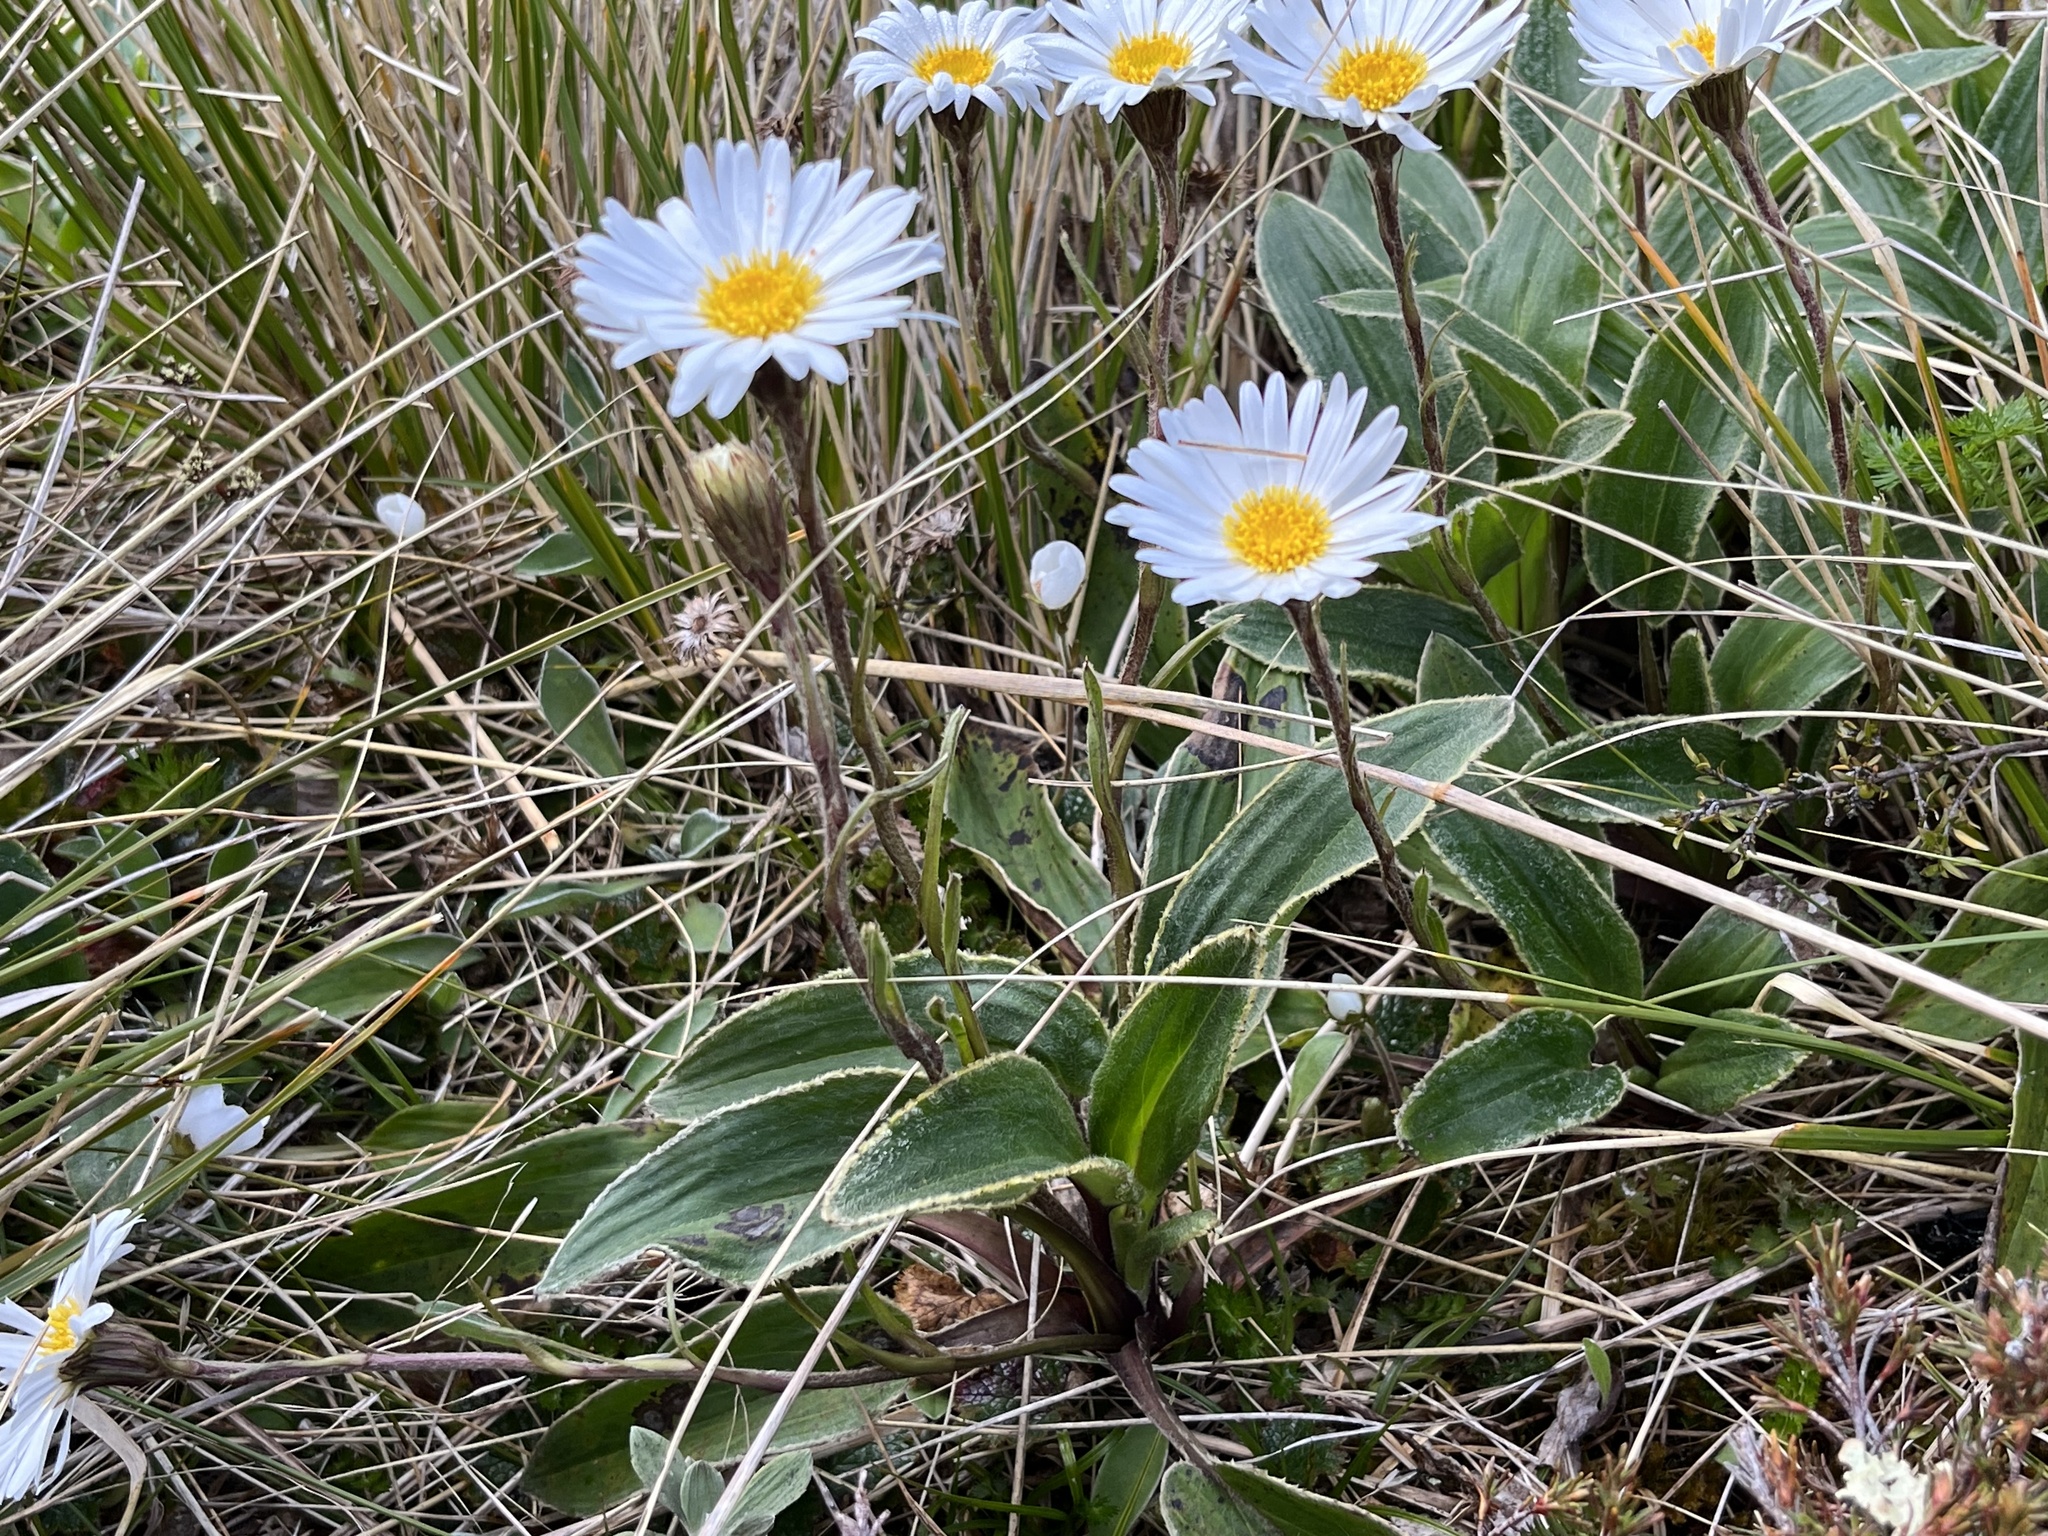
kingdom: Plantae
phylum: Tracheophyta
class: Magnoliopsida
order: Asterales
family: Asteraceae
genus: Celmisia
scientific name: Celmisia verbascifolia
